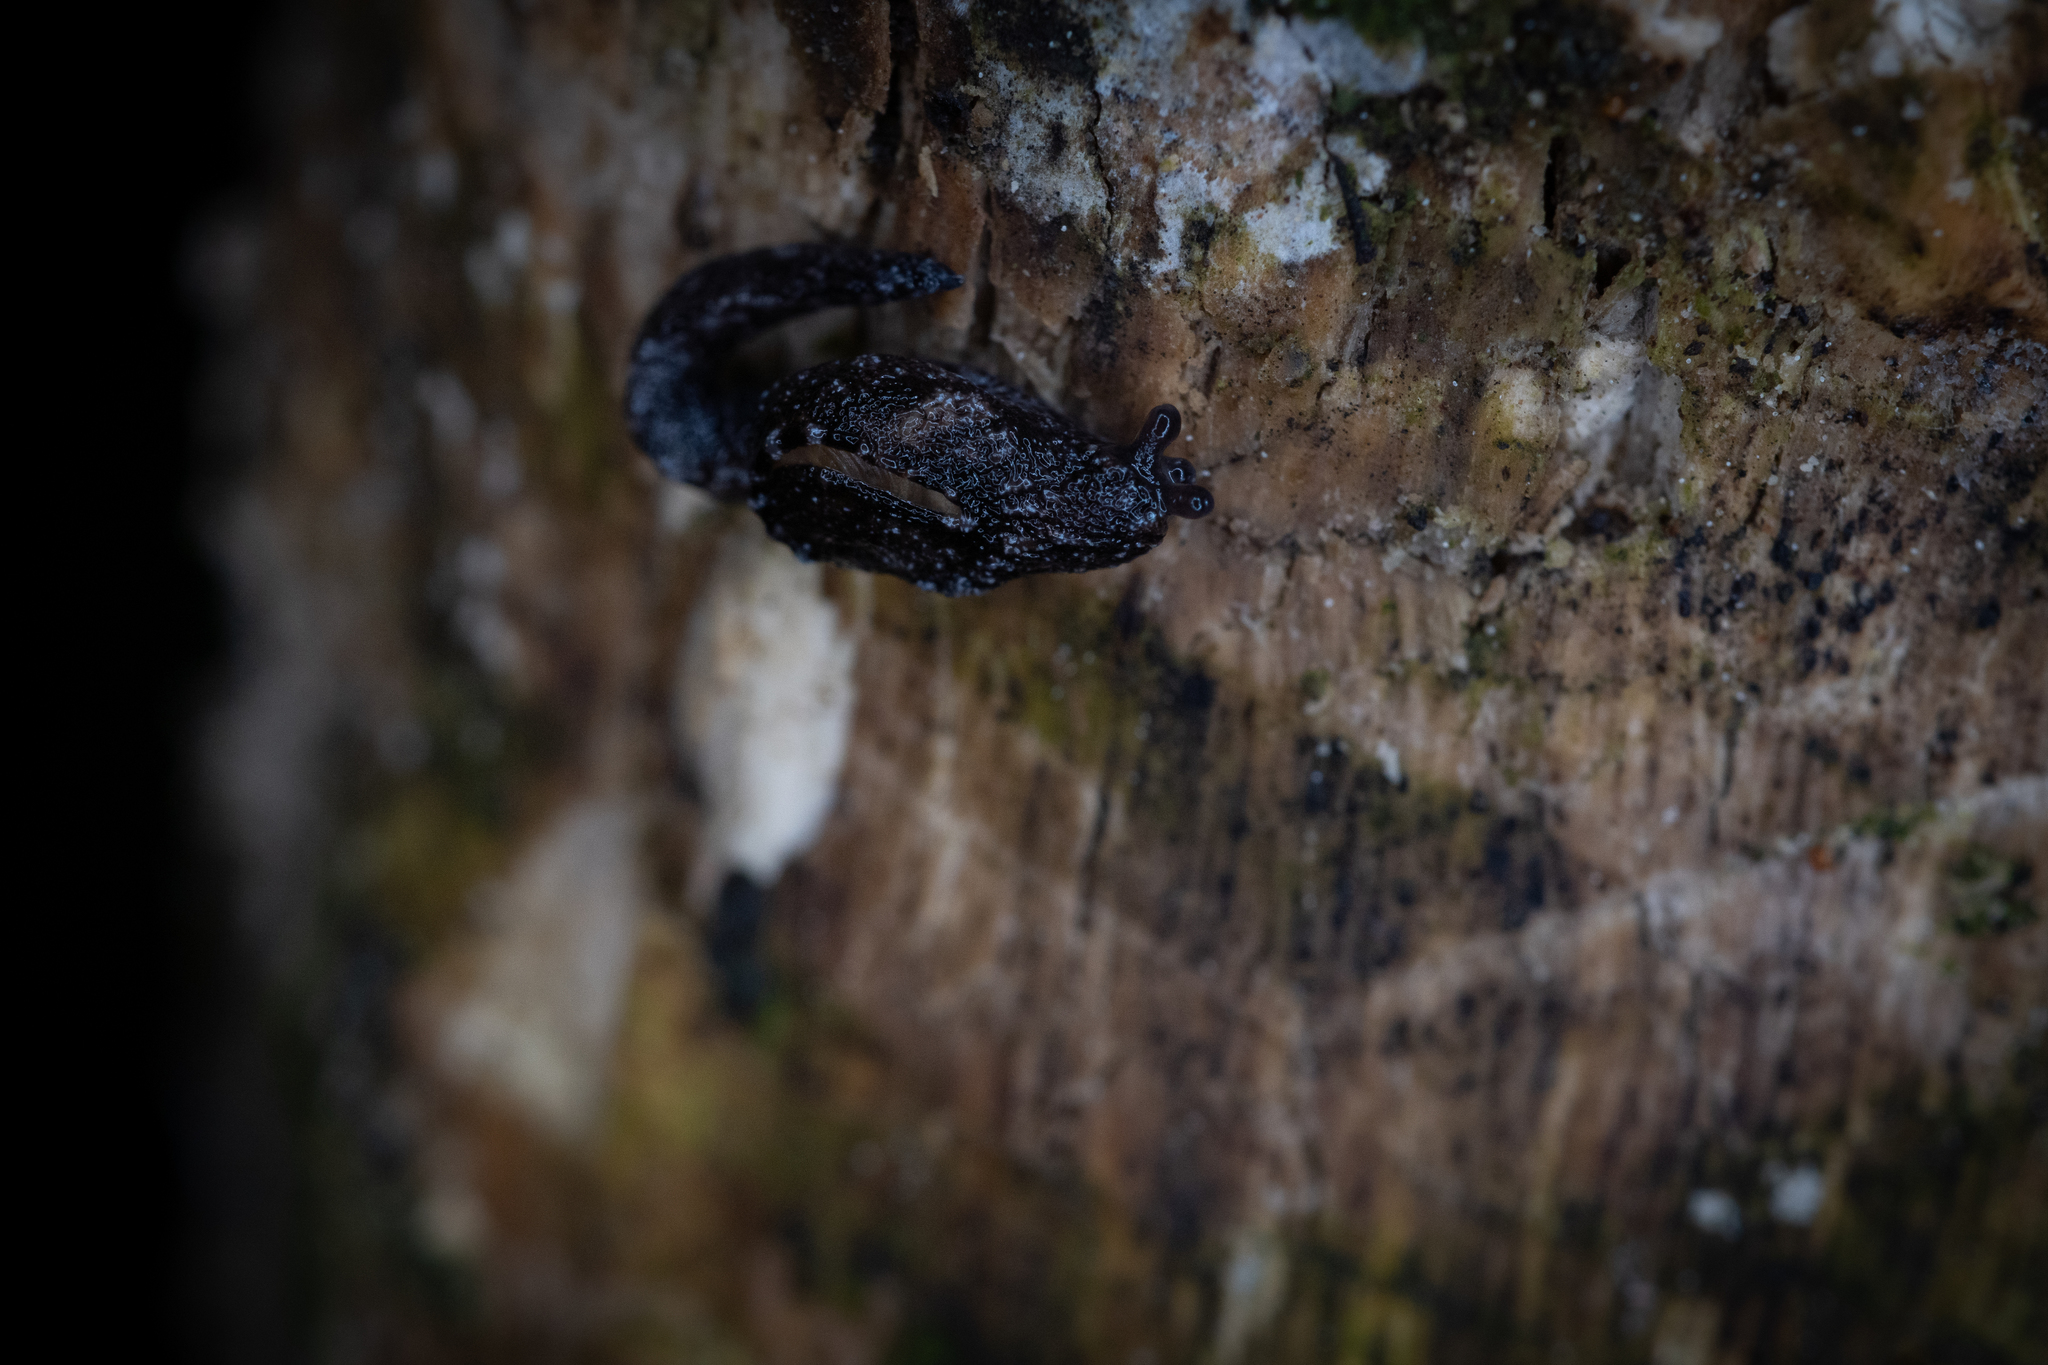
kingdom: Animalia
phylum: Mollusca
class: Gastropoda
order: Stylommatophora
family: Charopidae
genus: Otoconcha
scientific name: Otoconcha dimidiata
